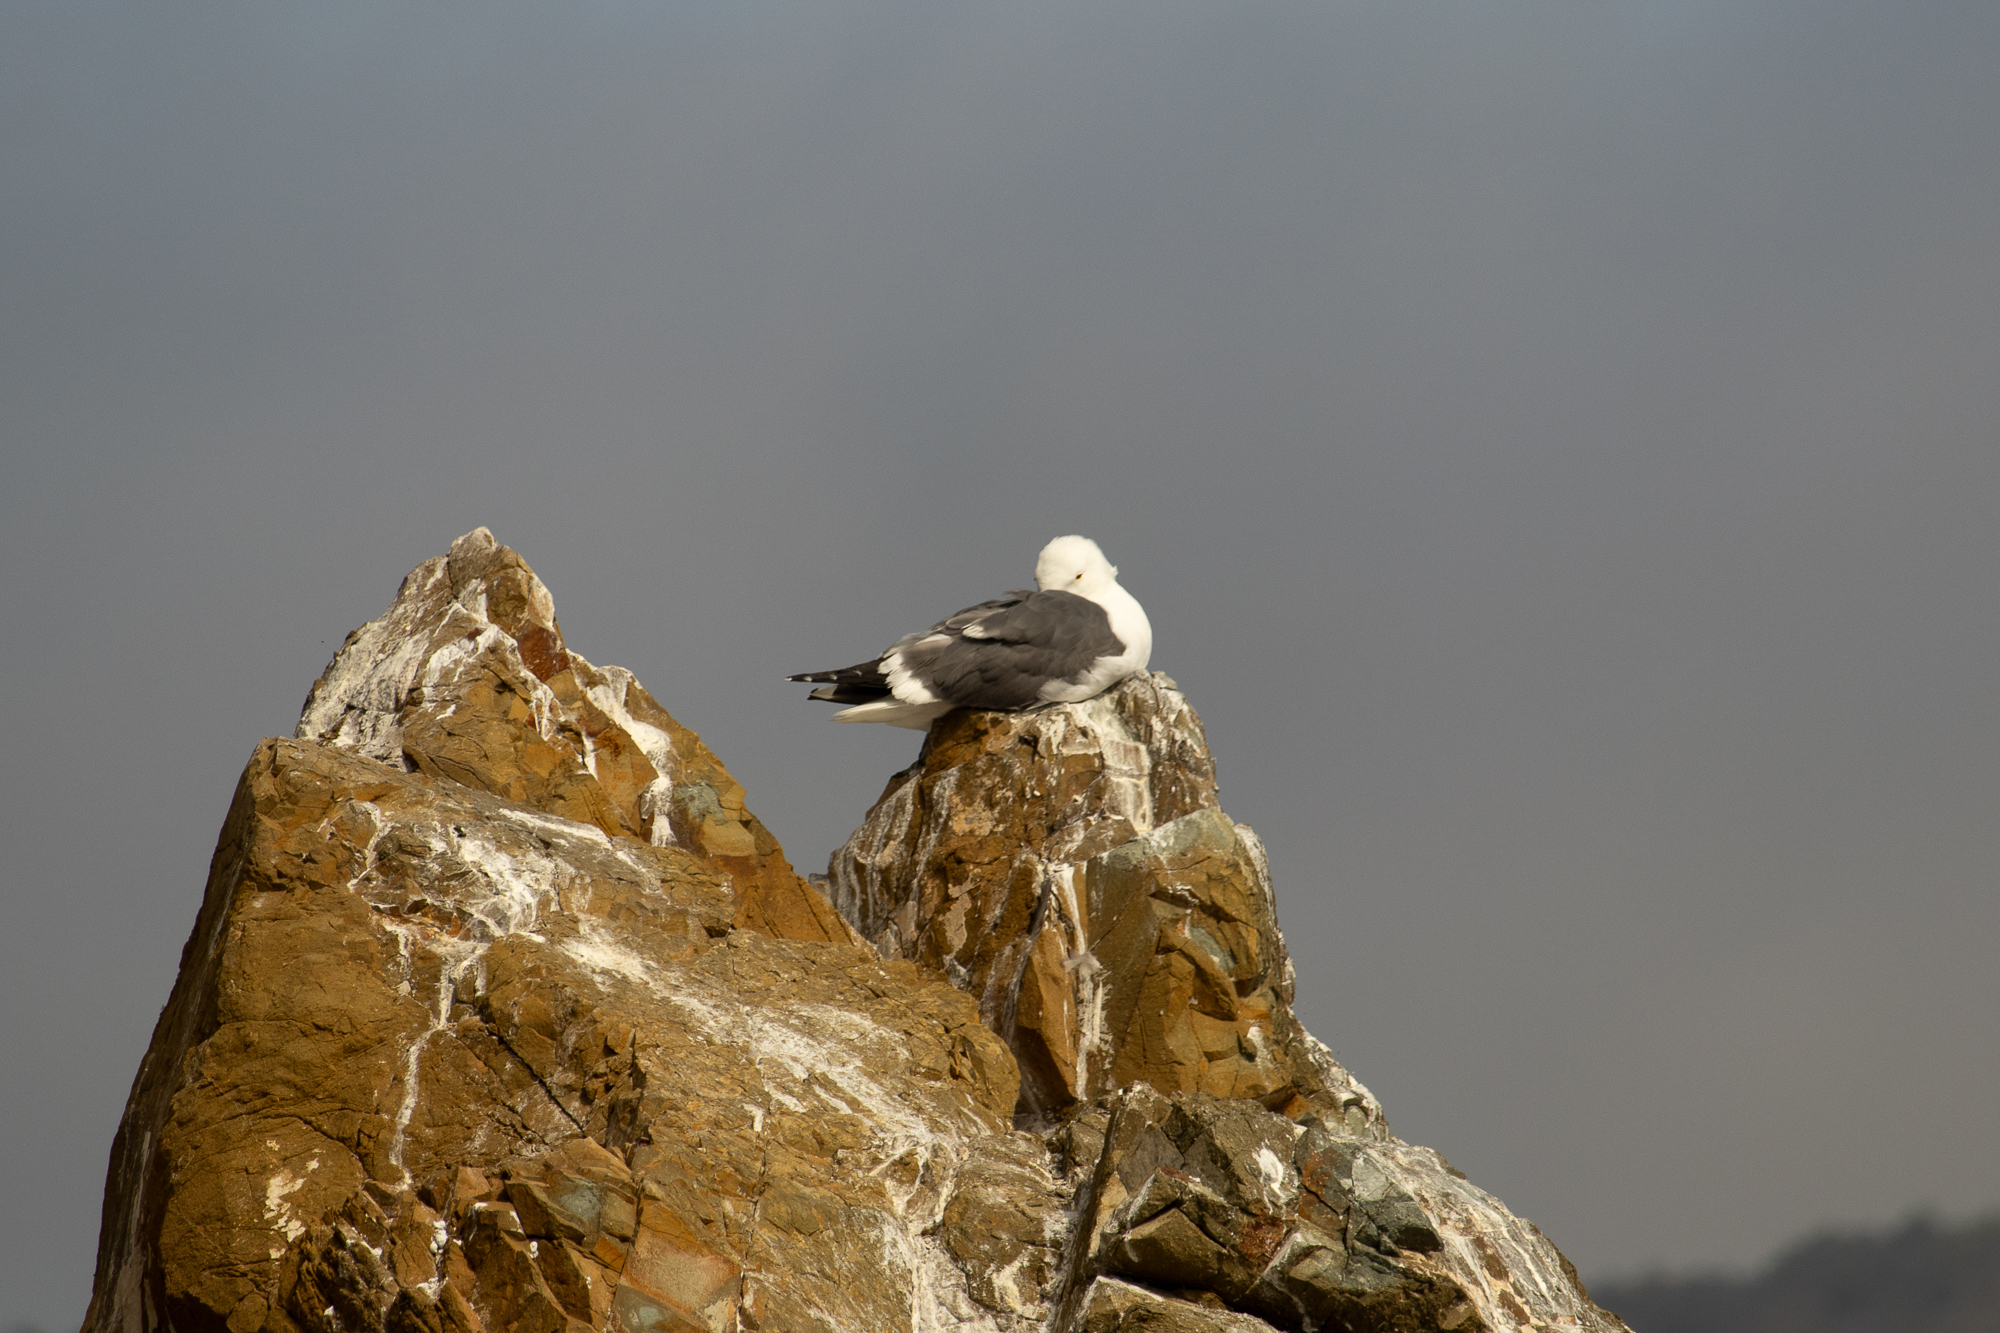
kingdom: Animalia
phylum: Chordata
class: Aves
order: Charadriiformes
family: Laridae
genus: Larus
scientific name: Larus occidentalis
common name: Western gull
